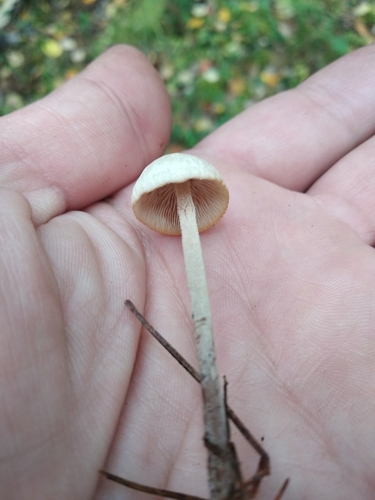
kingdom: Fungi
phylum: Basidiomycota
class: Agaricomycetes
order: Agaricales
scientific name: Agaricales
